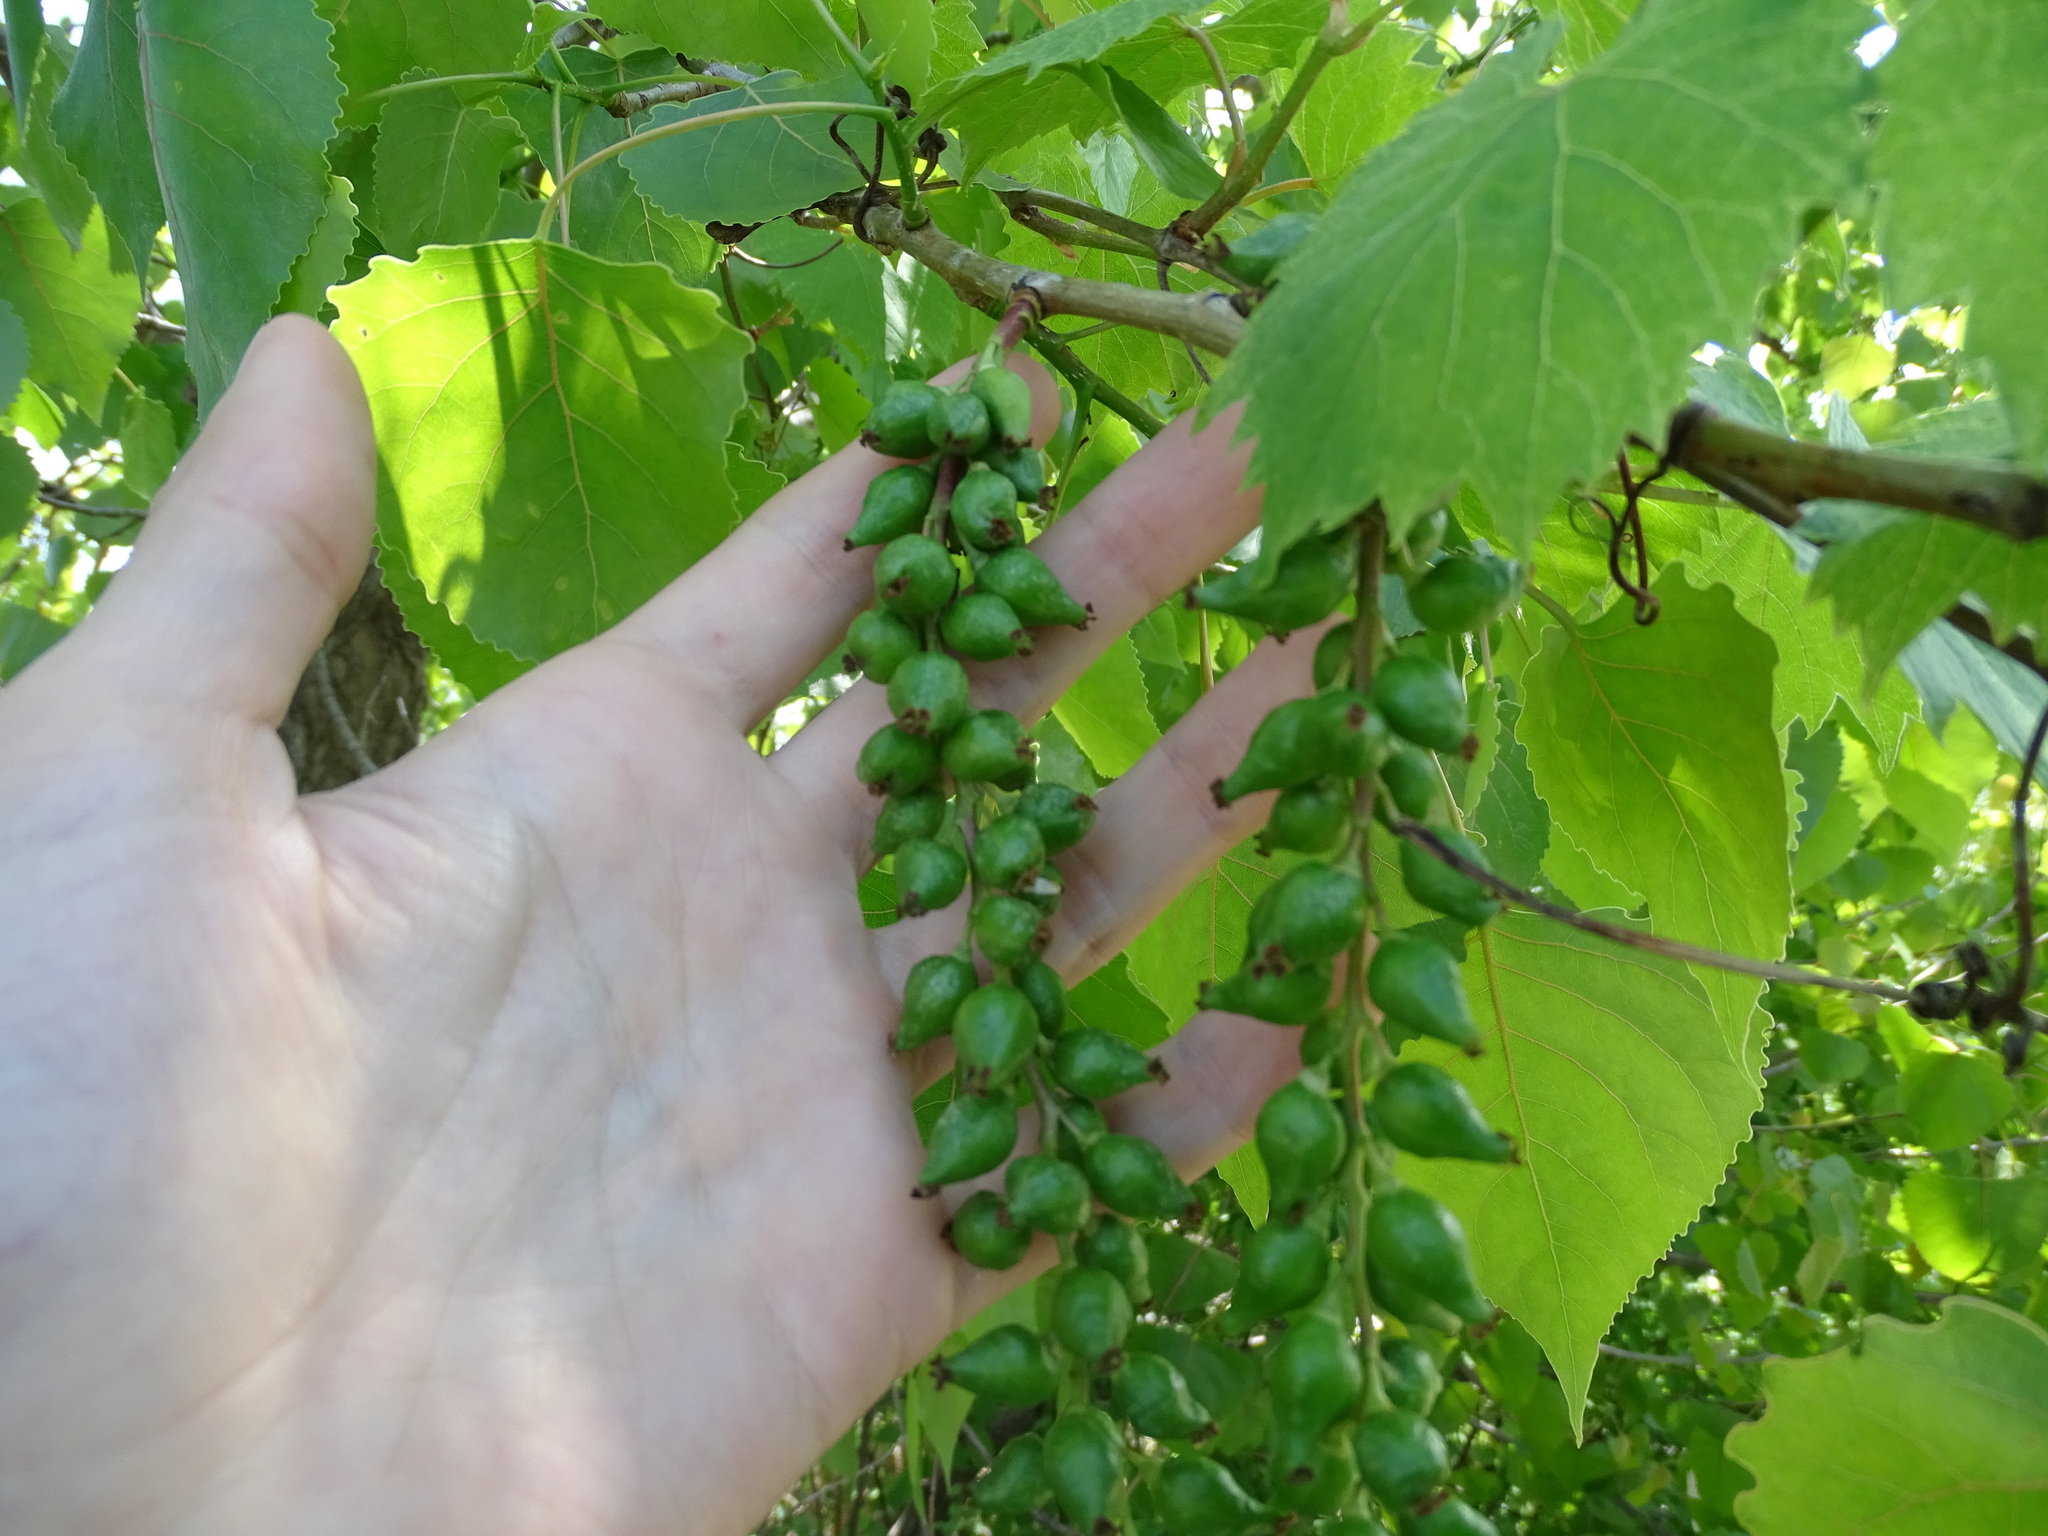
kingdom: Plantae
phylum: Tracheophyta
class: Magnoliopsida
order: Malpighiales
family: Salicaceae
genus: Populus
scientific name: Populus deltoides
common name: Eastern cottonwood
